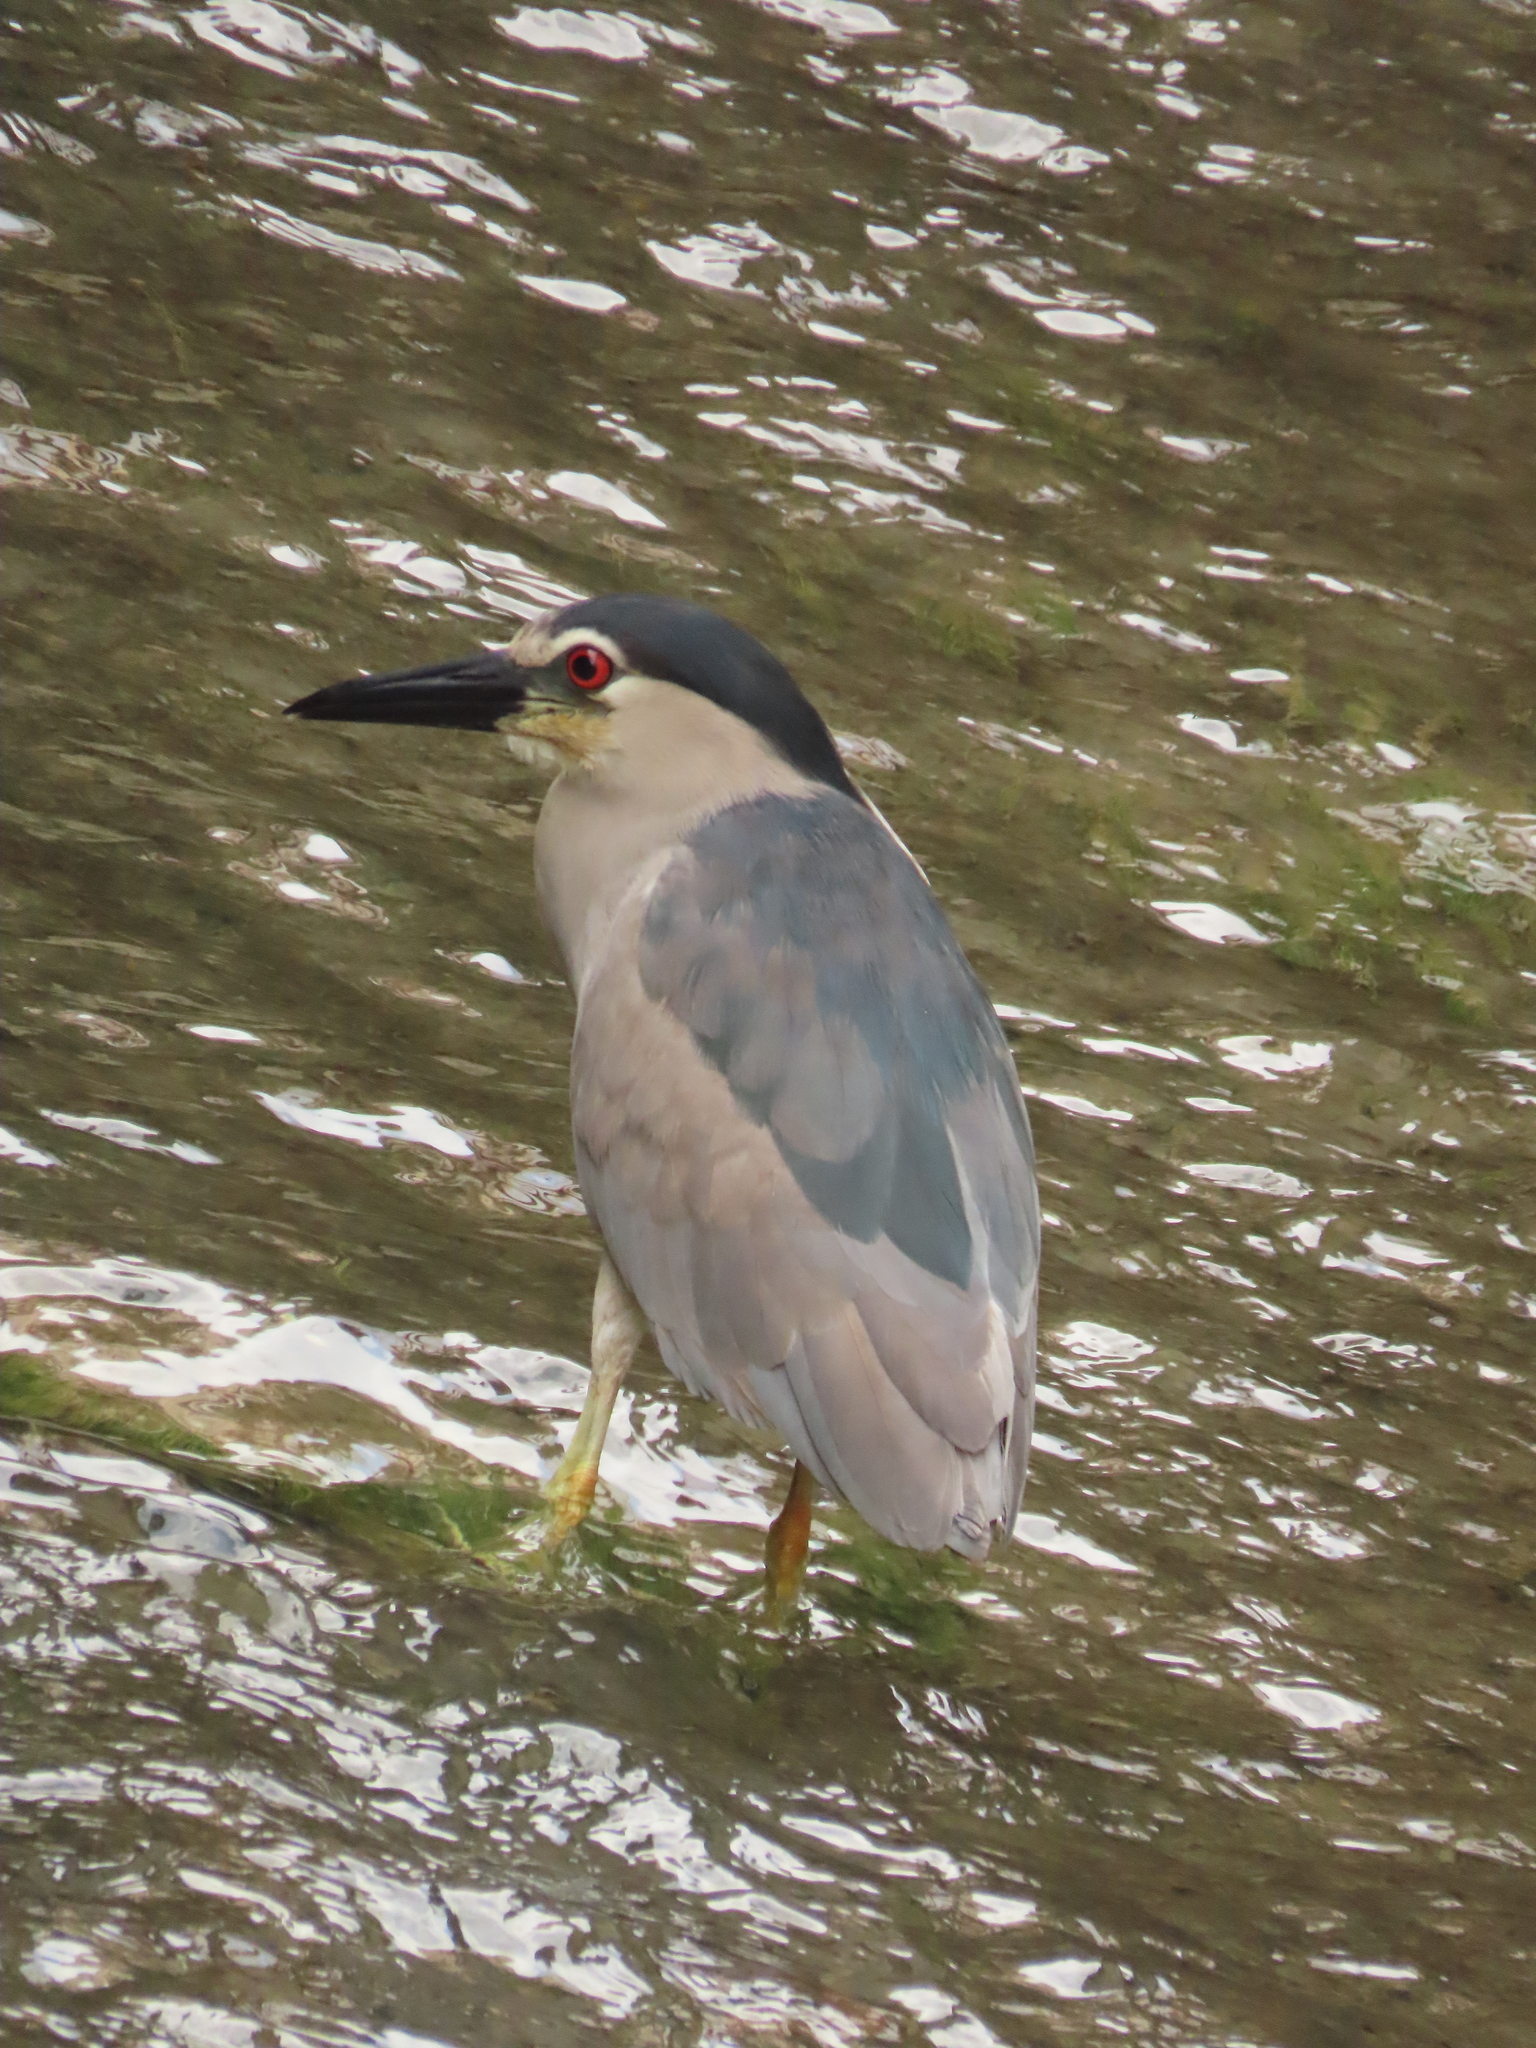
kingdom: Animalia
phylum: Chordata
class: Aves
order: Pelecaniformes
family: Ardeidae
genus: Nycticorax
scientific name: Nycticorax nycticorax
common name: Black-crowned night heron
